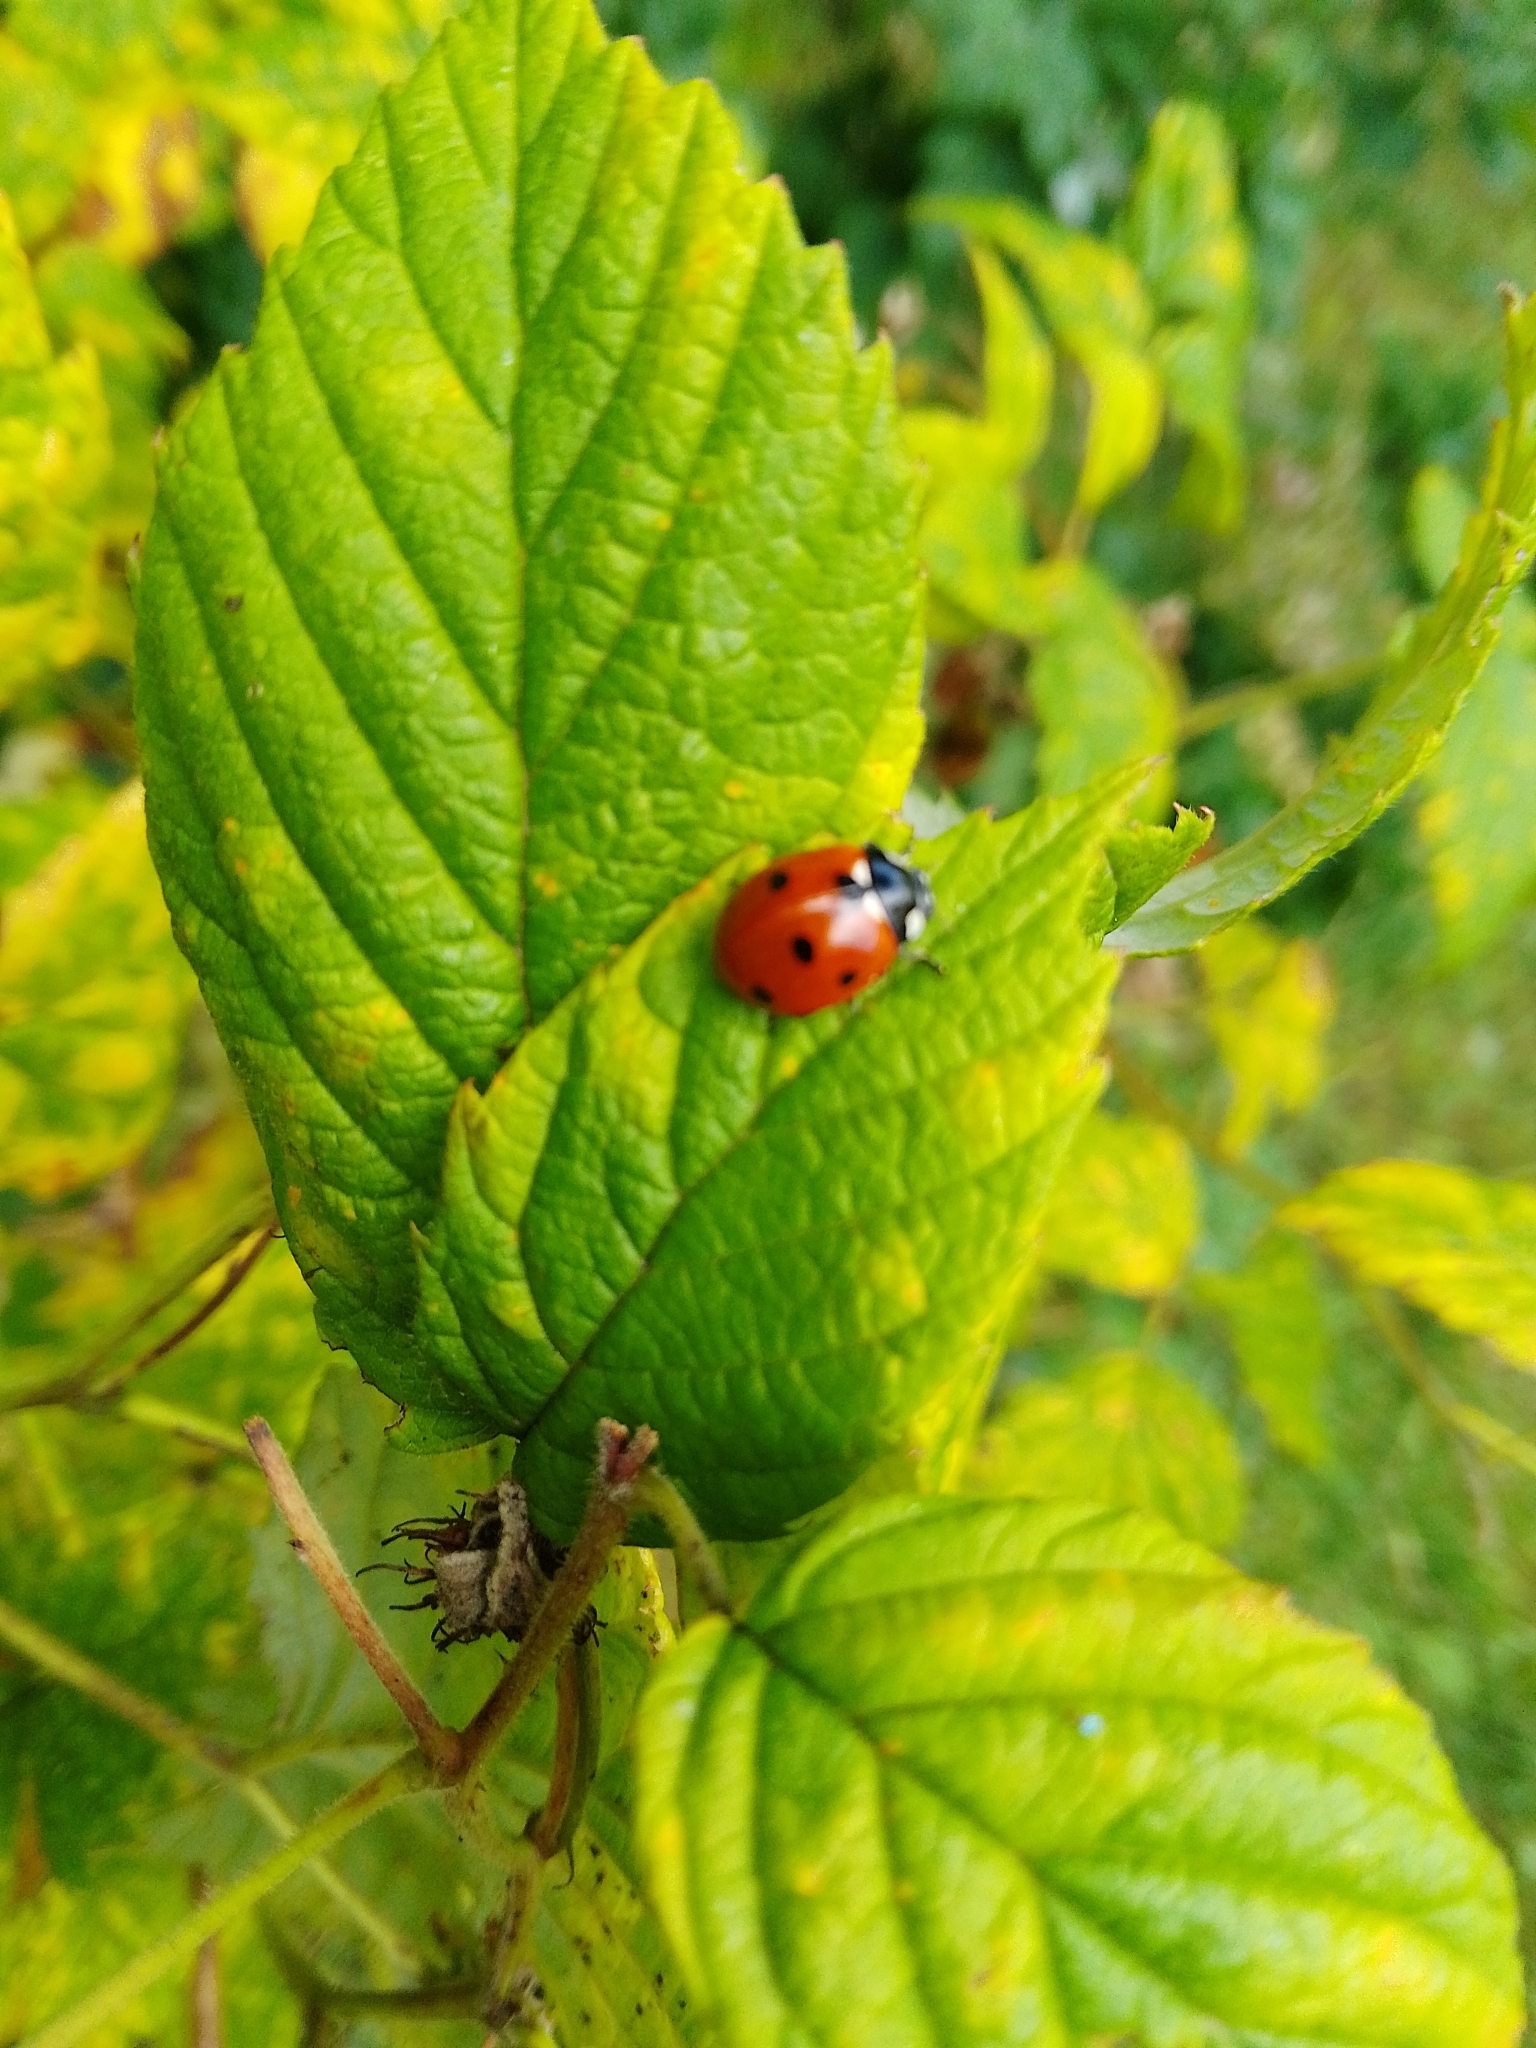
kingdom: Animalia
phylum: Arthropoda
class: Insecta
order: Coleoptera
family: Coccinellidae
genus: Coccinella
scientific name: Coccinella septempunctata
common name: Sevenspotted lady beetle
